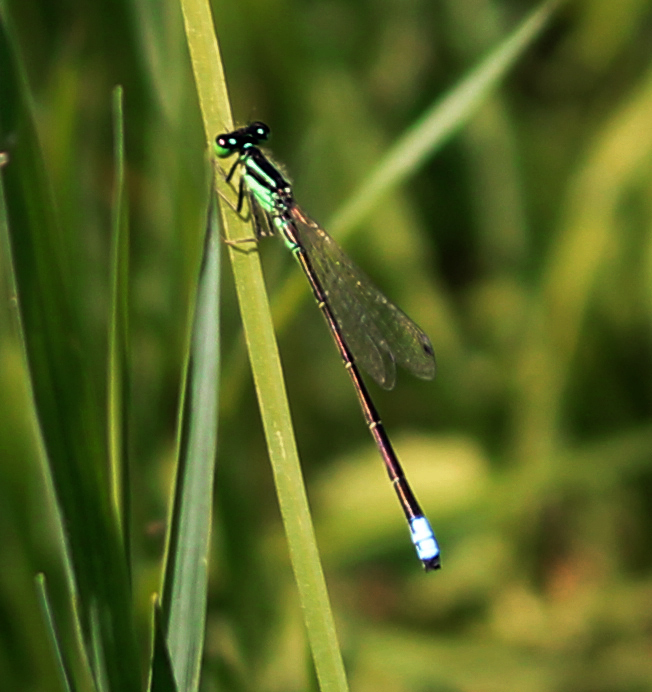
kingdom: Animalia
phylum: Arthropoda
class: Insecta
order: Odonata
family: Coenagrionidae
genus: Ischnura
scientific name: Ischnura verticalis
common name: Eastern forktail
